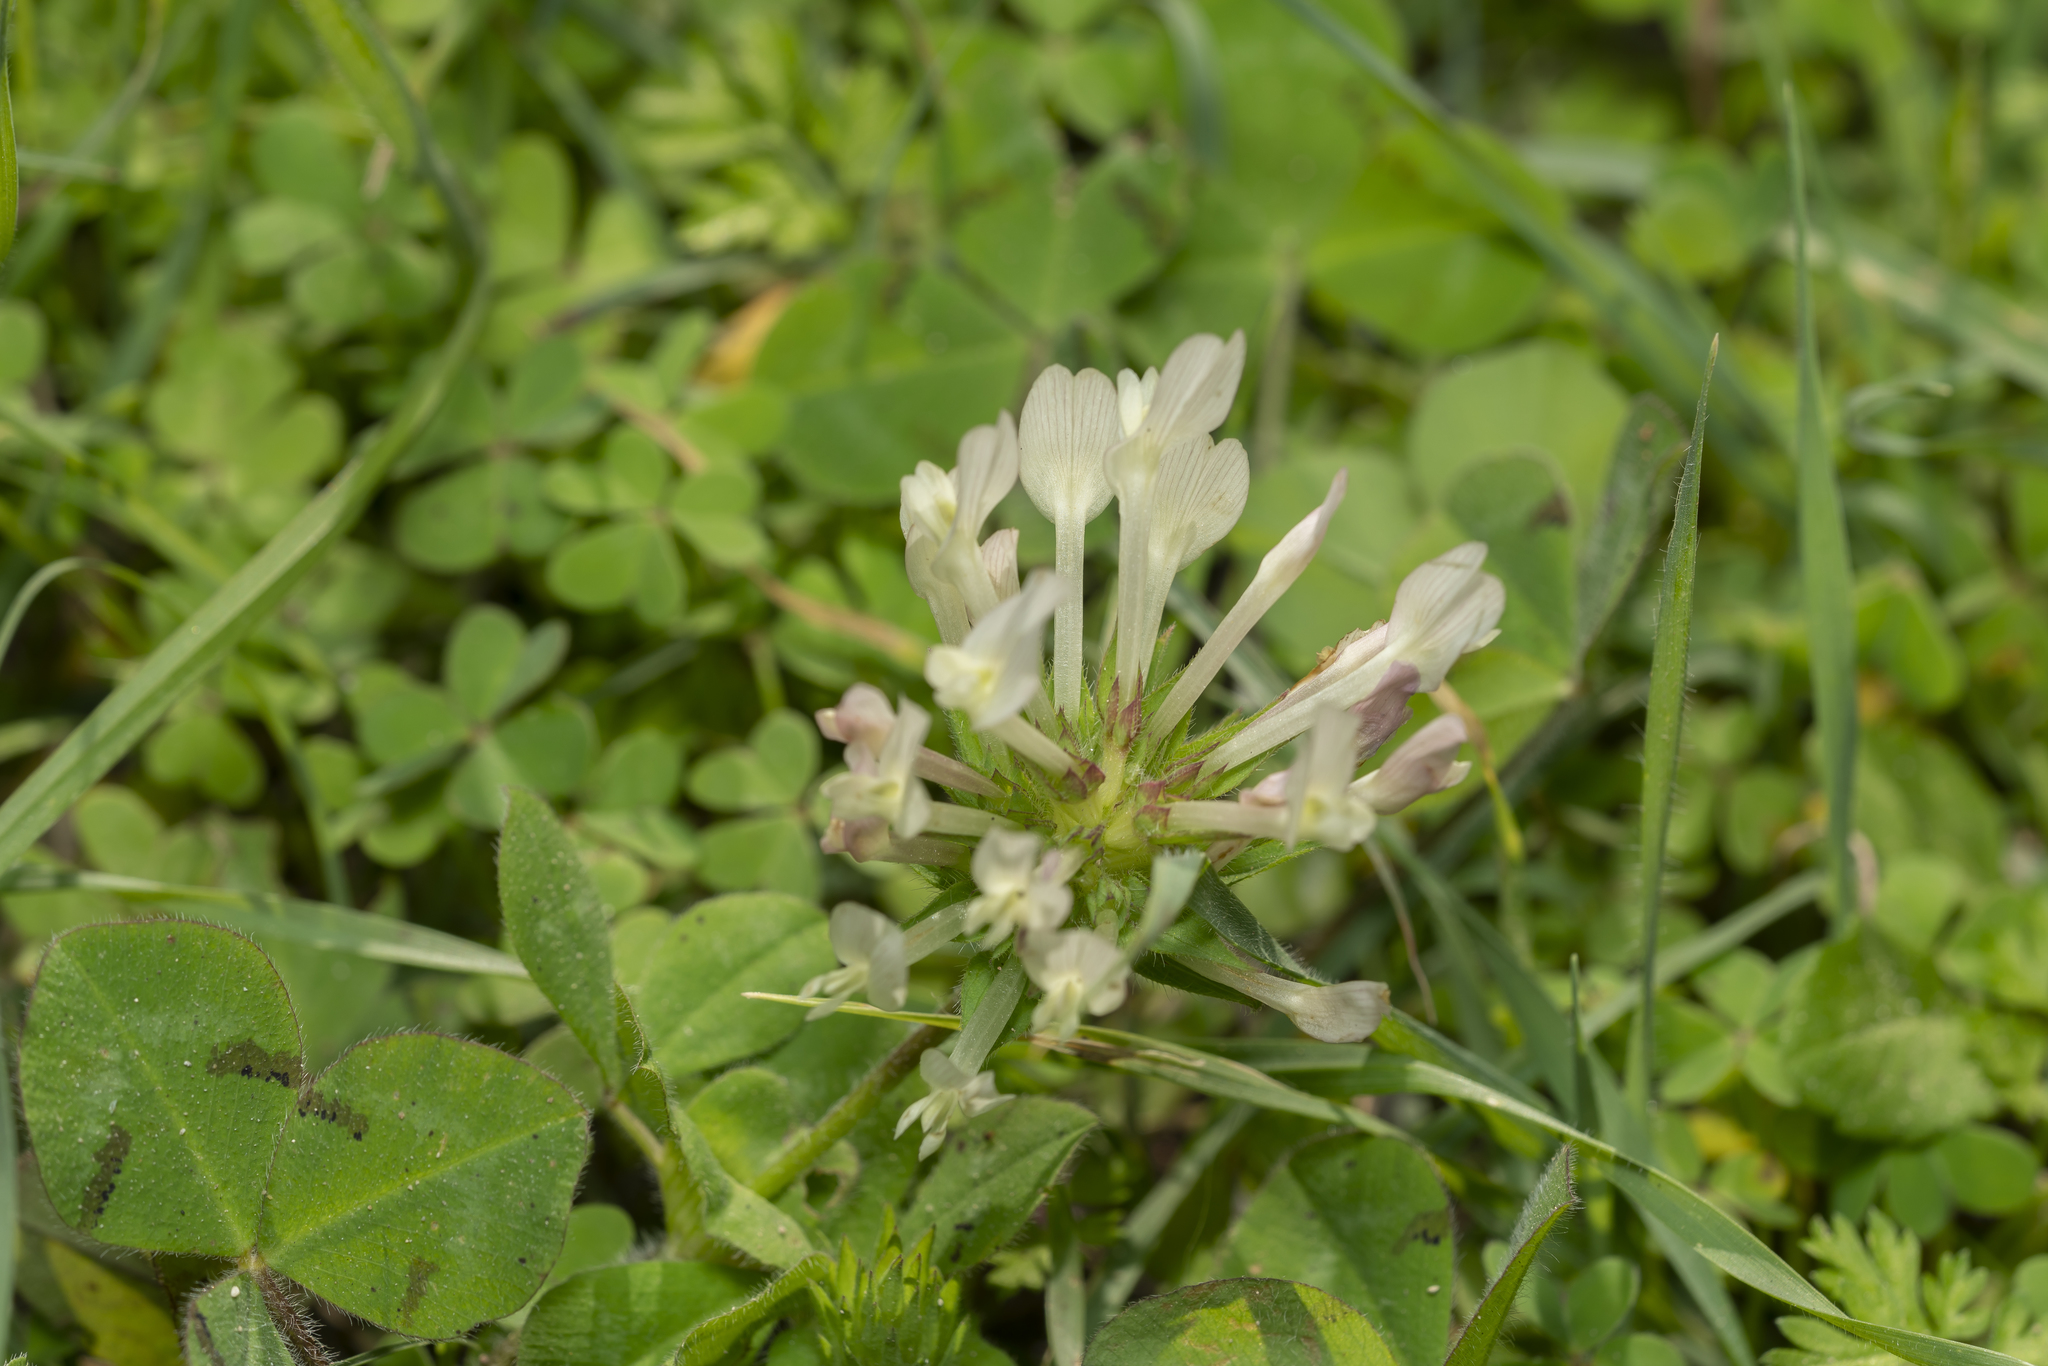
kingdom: Plantae
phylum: Tracheophyta
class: Magnoliopsida
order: Fabales
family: Fabaceae
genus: Trifolium
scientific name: Trifolium clypeatum
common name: Shield clover
